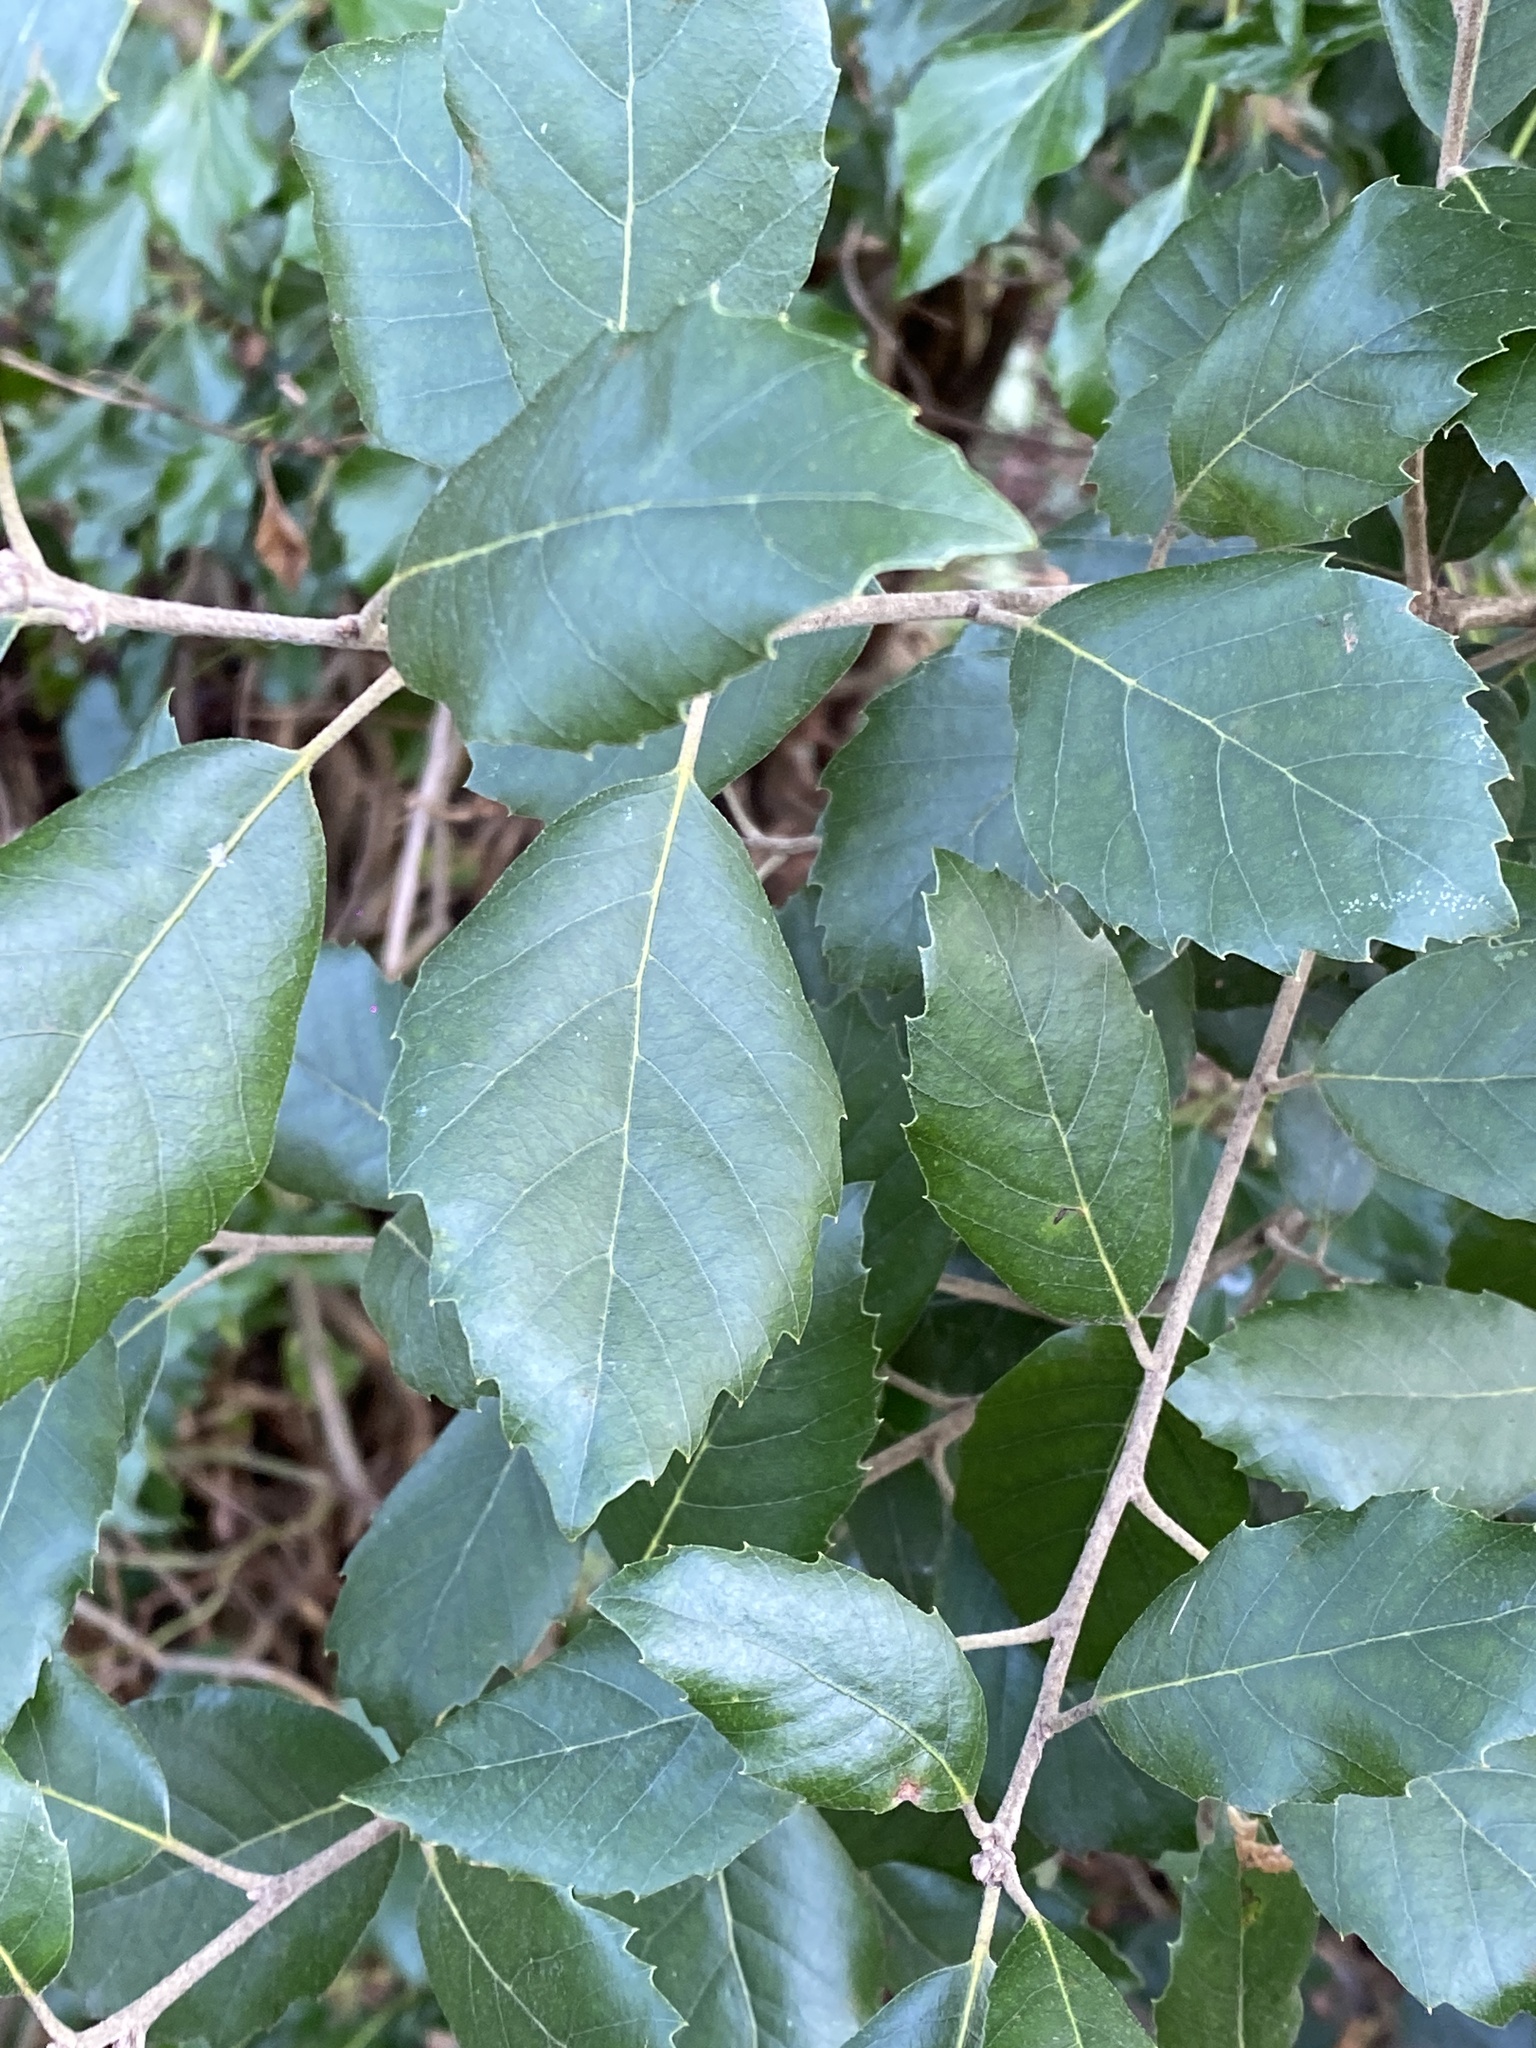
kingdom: Plantae
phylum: Tracheophyta
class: Magnoliopsida
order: Fagales
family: Fagaceae
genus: Quercus
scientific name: Quercus ilex
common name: Evergreen oak
